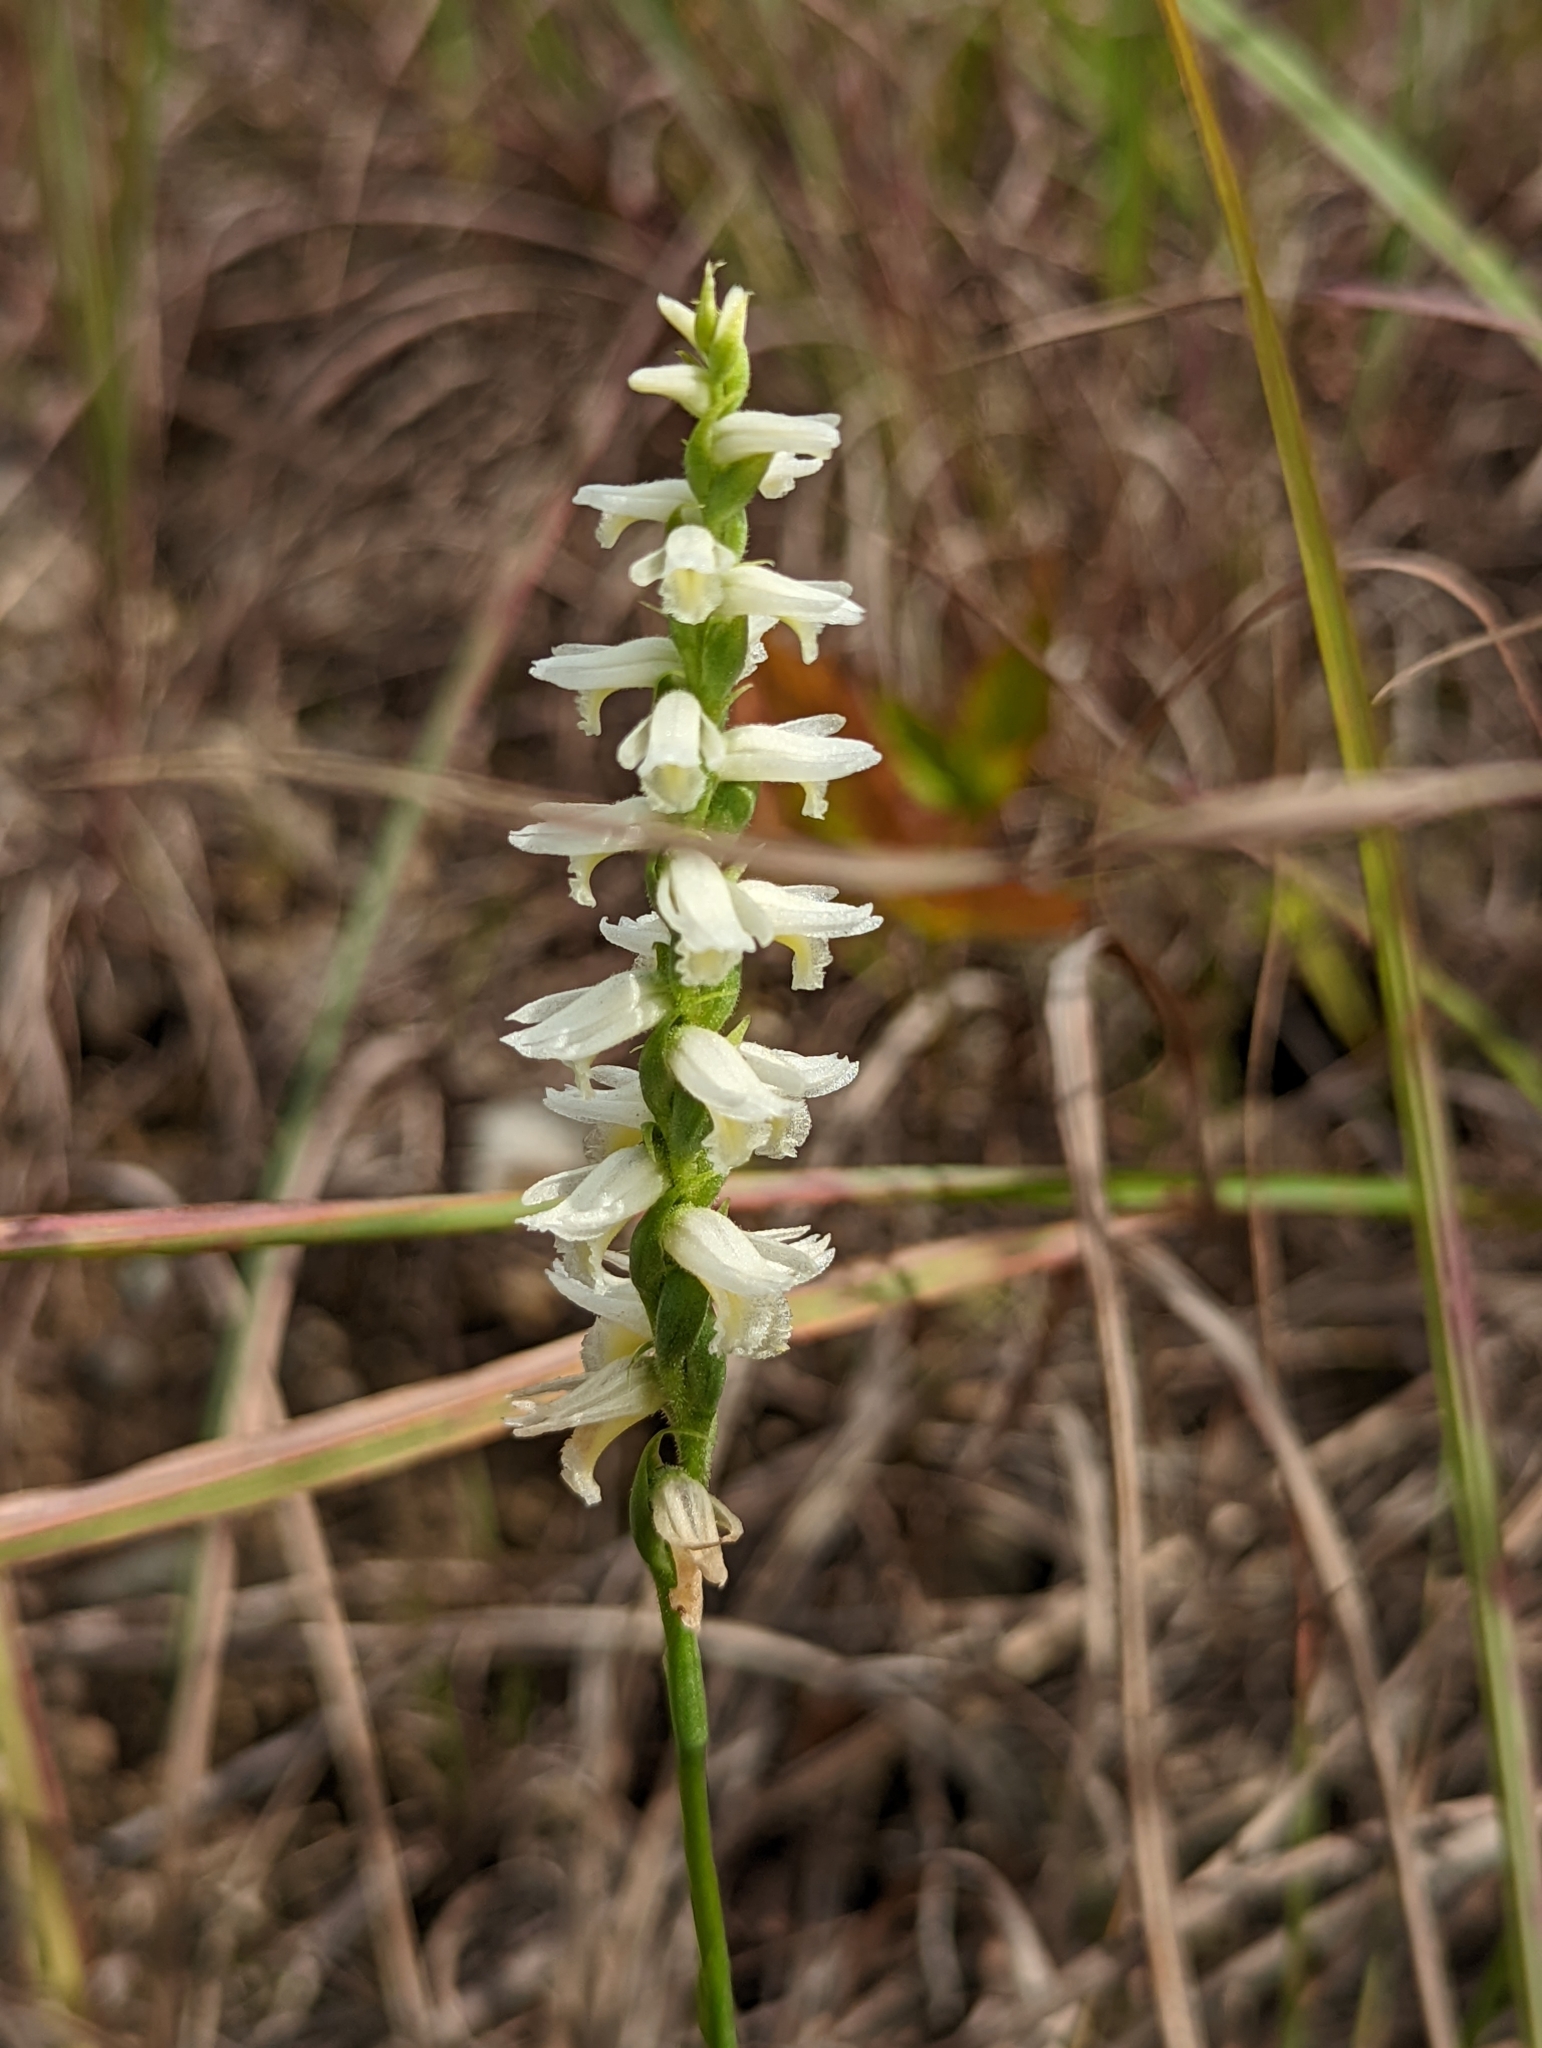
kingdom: Plantae
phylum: Tracheophyta
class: Liliopsida
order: Asparagales
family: Orchidaceae
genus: Spiranthes
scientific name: Spiranthes magnicamporum
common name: Great plains ladies'-tresses
